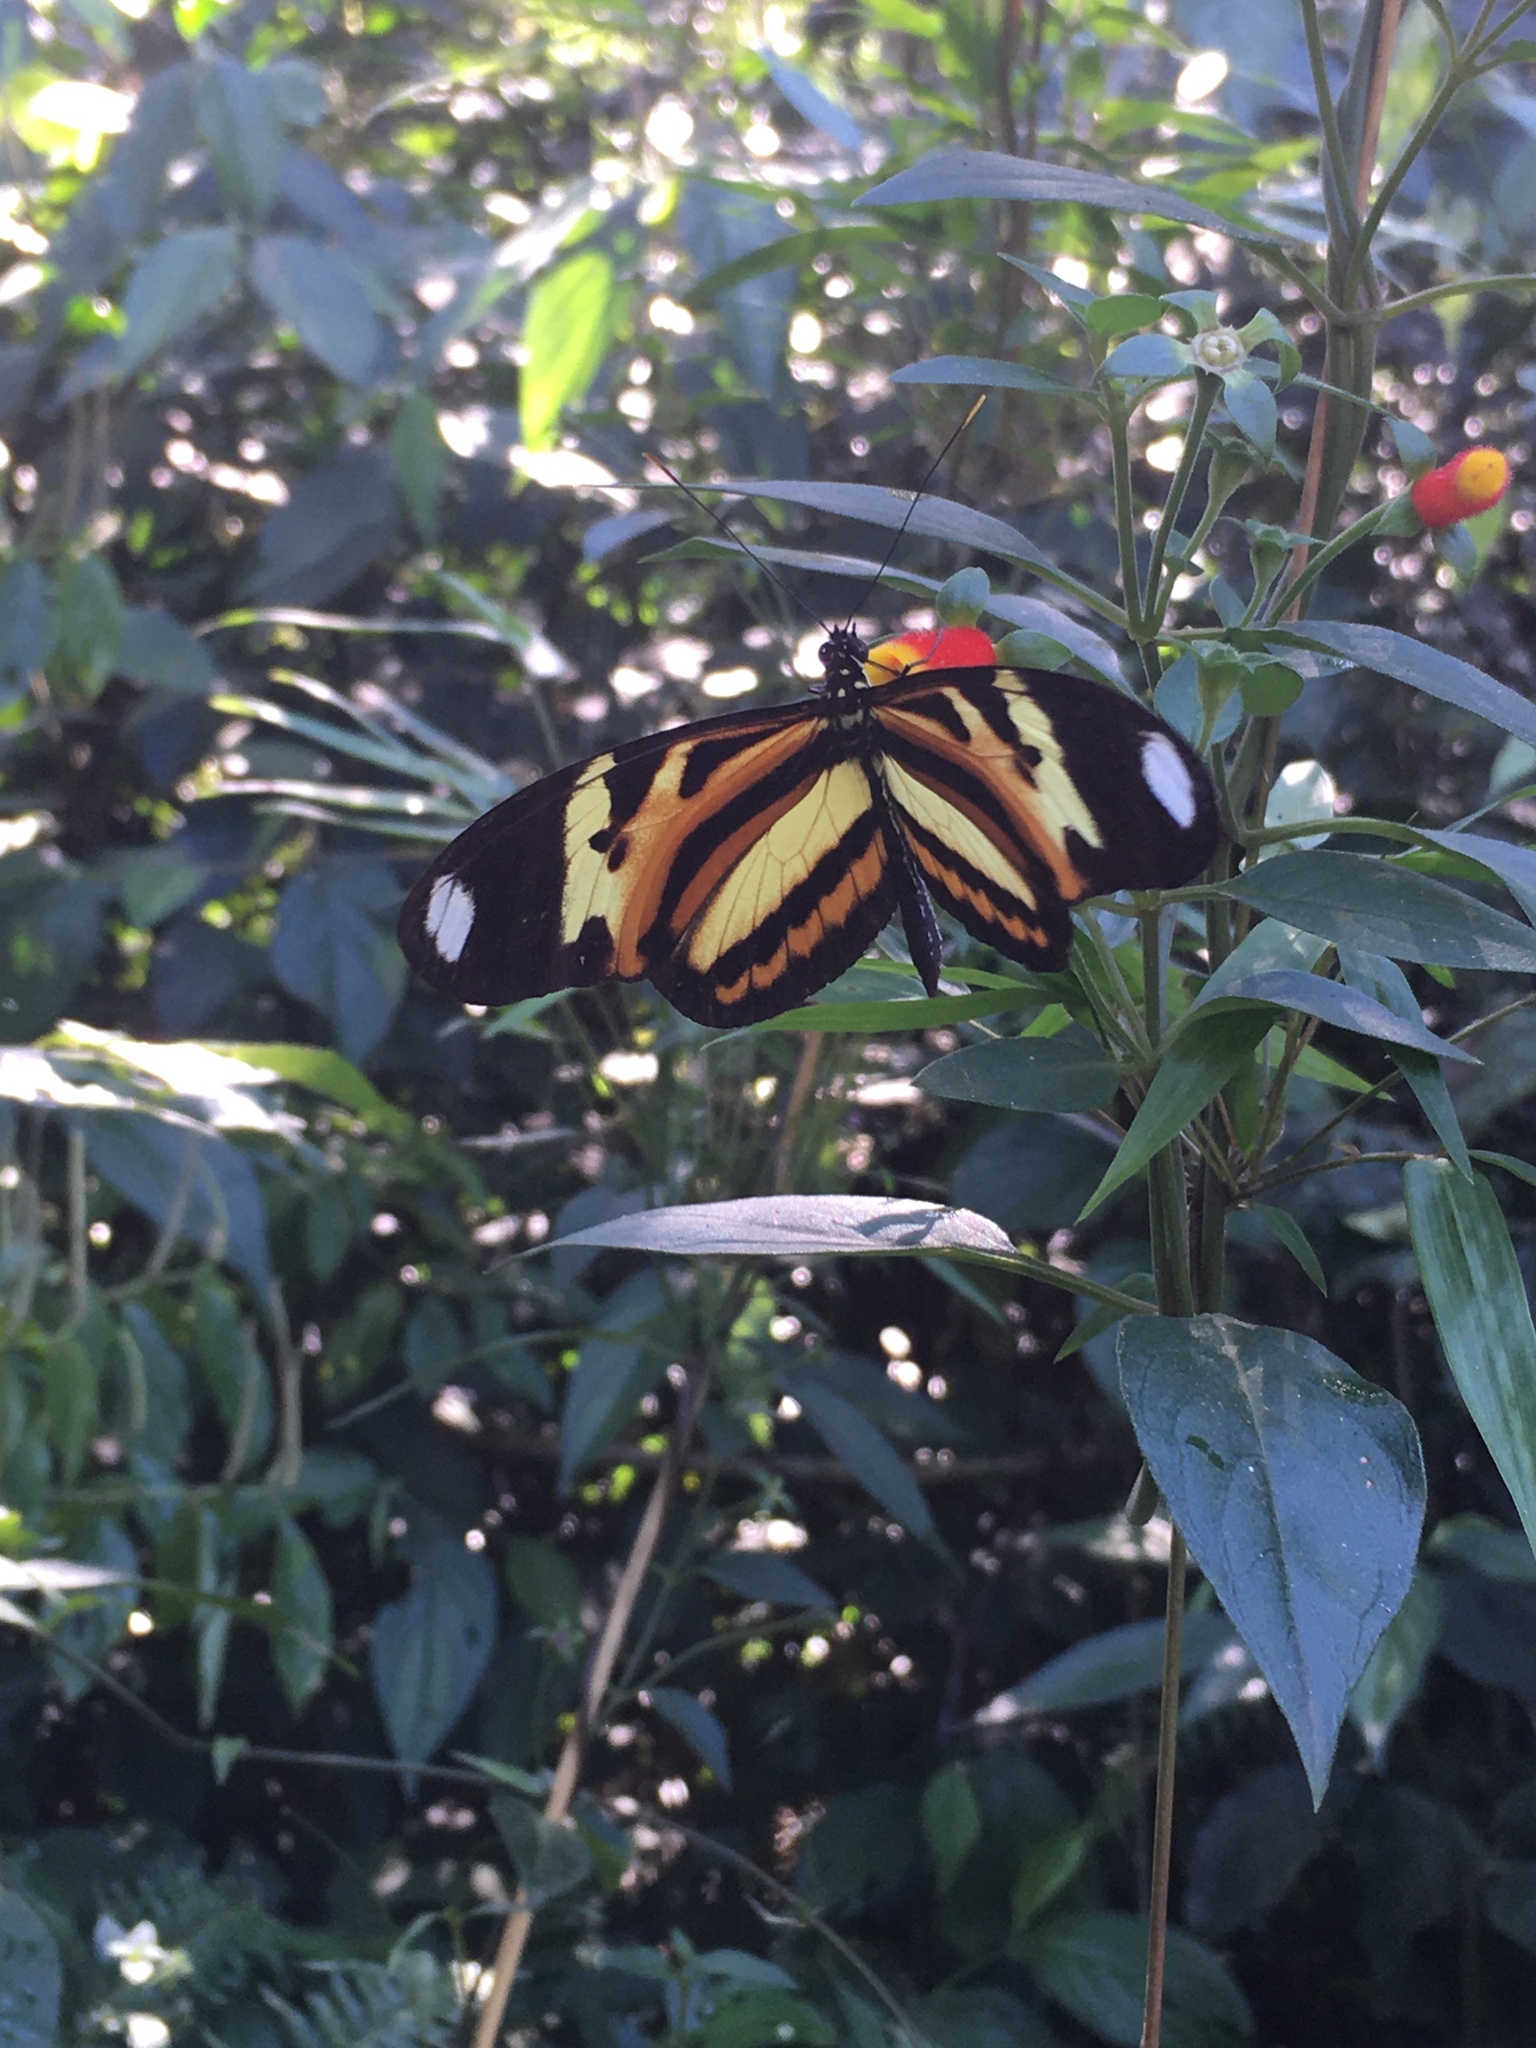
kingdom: Animalia
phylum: Arthropoda
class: Insecta
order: Lepidoptera
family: Nymphalidae
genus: Heliconius
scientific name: Heliconius ethilla
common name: Ethilia longwing
